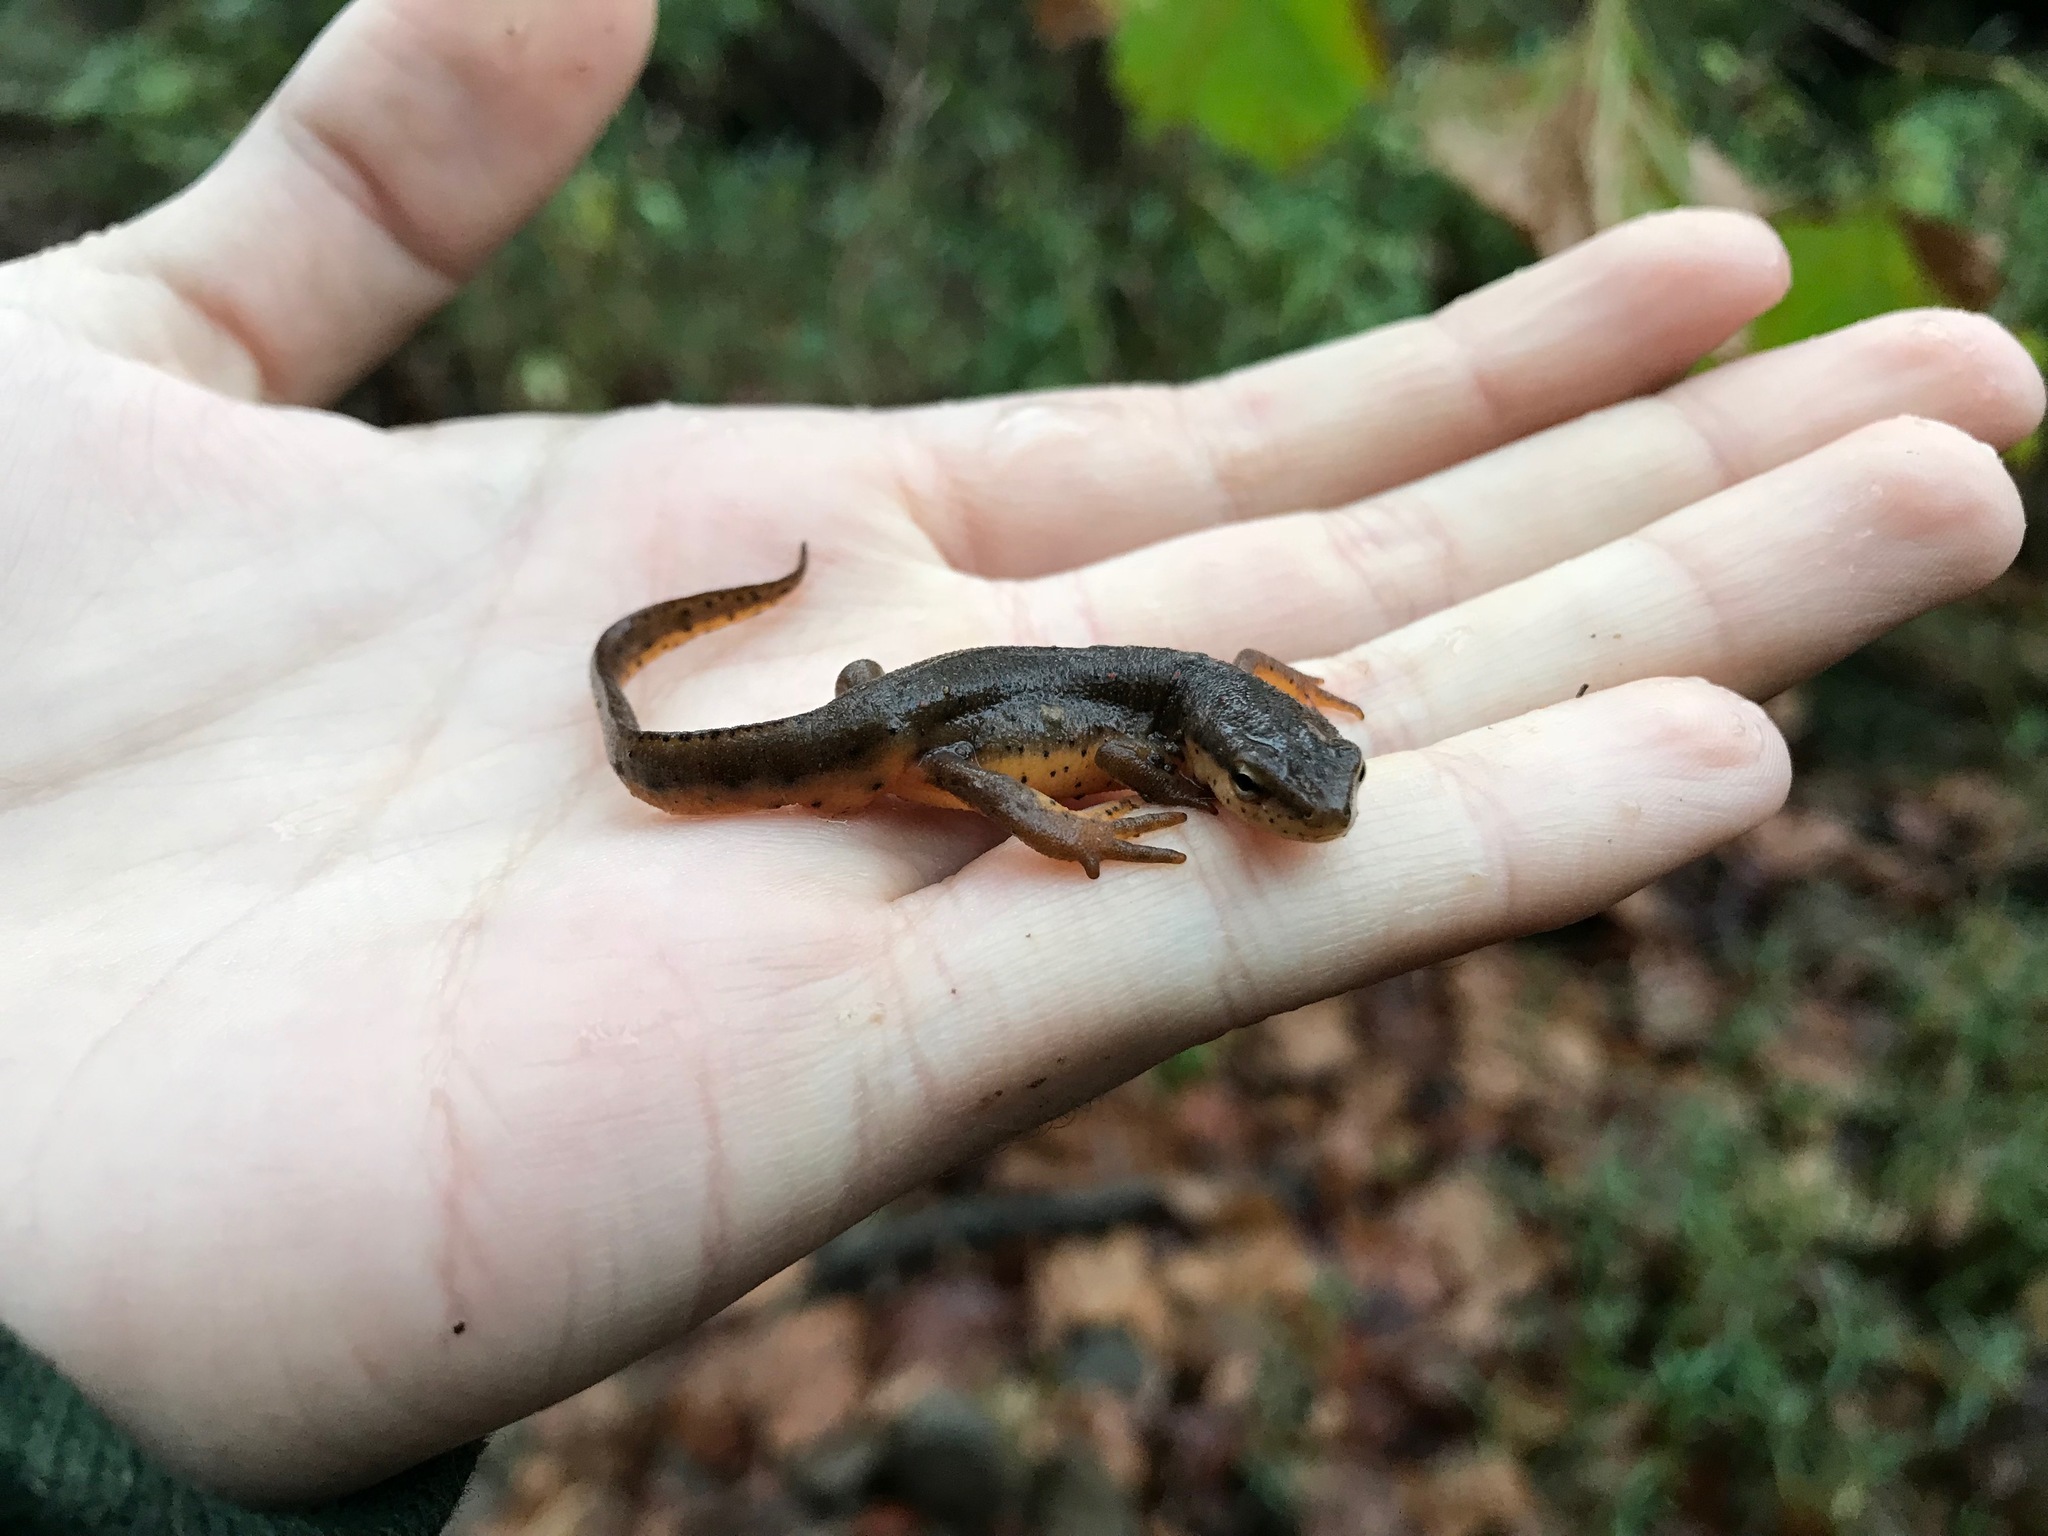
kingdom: Animalia
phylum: Chordata
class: Amphibia
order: Caudata
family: Salamandridae
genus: Notophthalmus
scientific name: Notophthalmus viridescens
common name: Eastern newt
